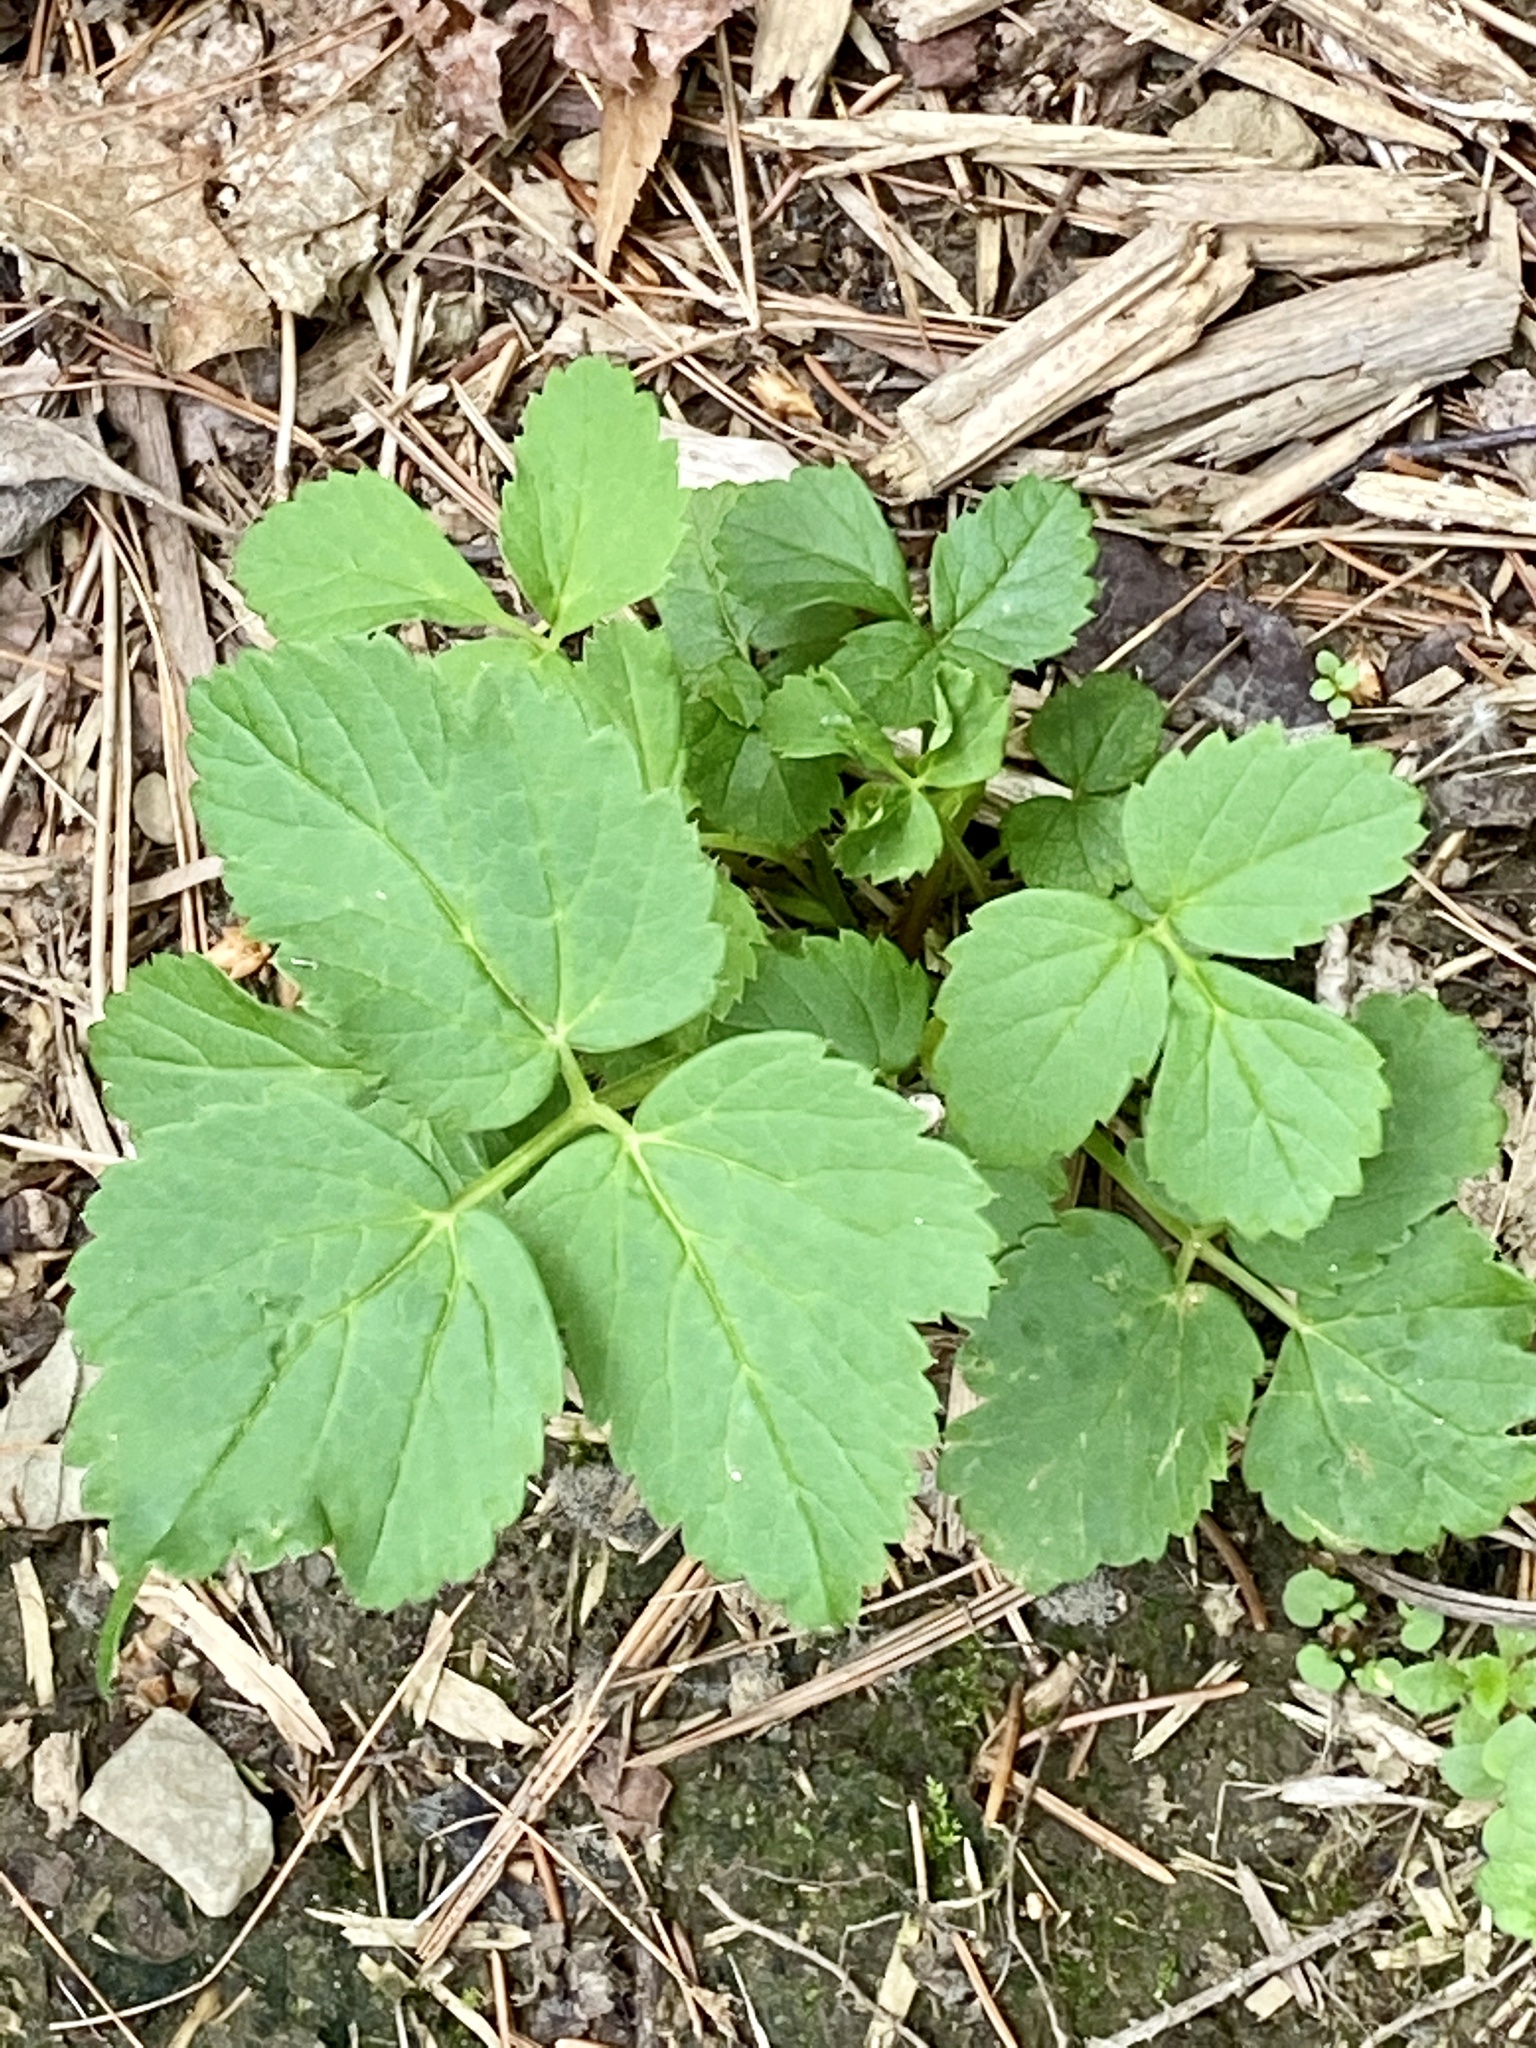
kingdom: Plantae
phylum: Tracheophyta
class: Magnoliopsida
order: Apiales
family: Apiaceae
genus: Aegopodium
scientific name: Aegopodium podagraria
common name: Ground-elder
